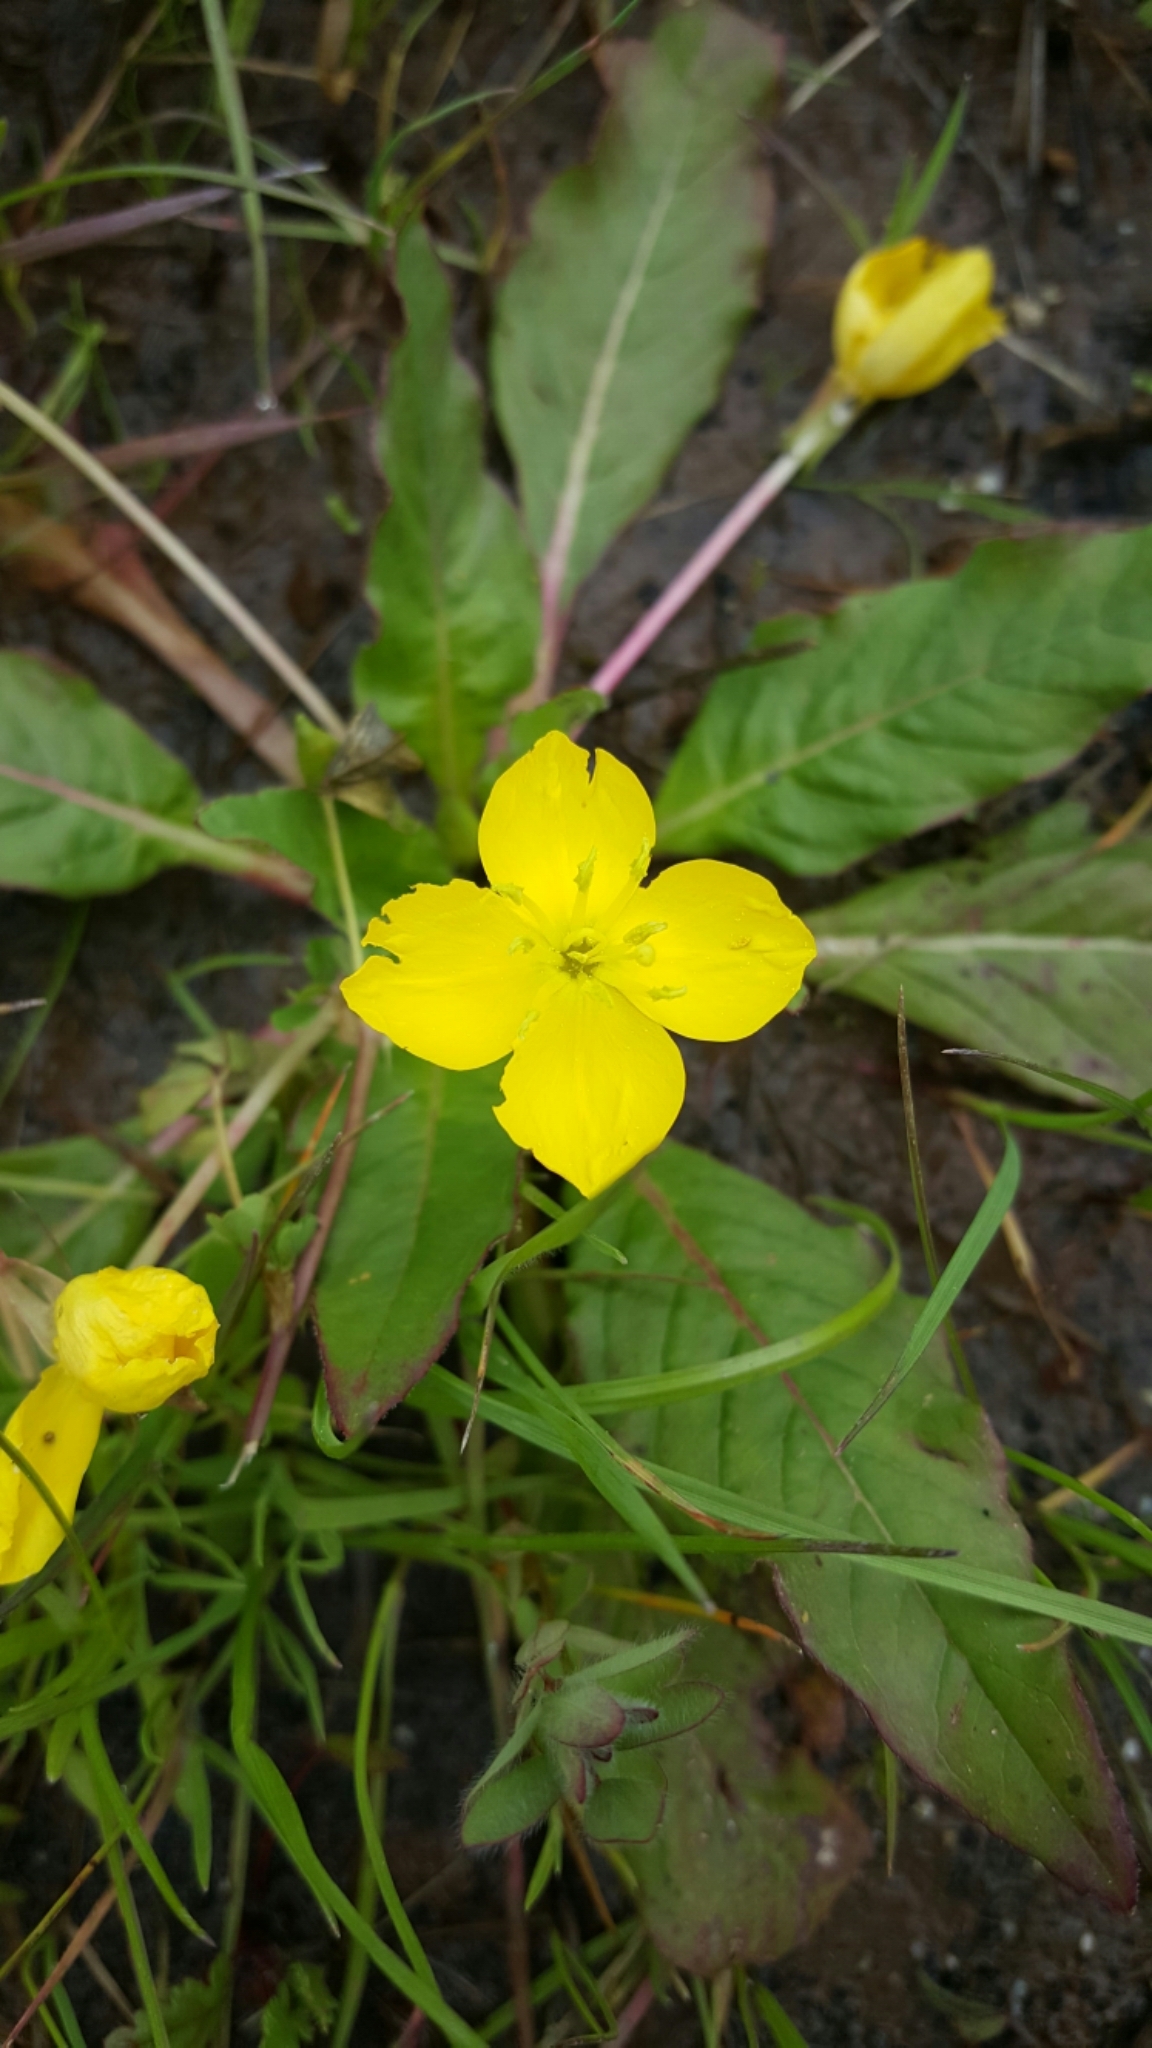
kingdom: Plantae
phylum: Tracheophyta
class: Magnoliopsida
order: Myrtales
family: Onagraceae
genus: Taraxia
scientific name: Taraxia ovata
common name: Goldeneggs
